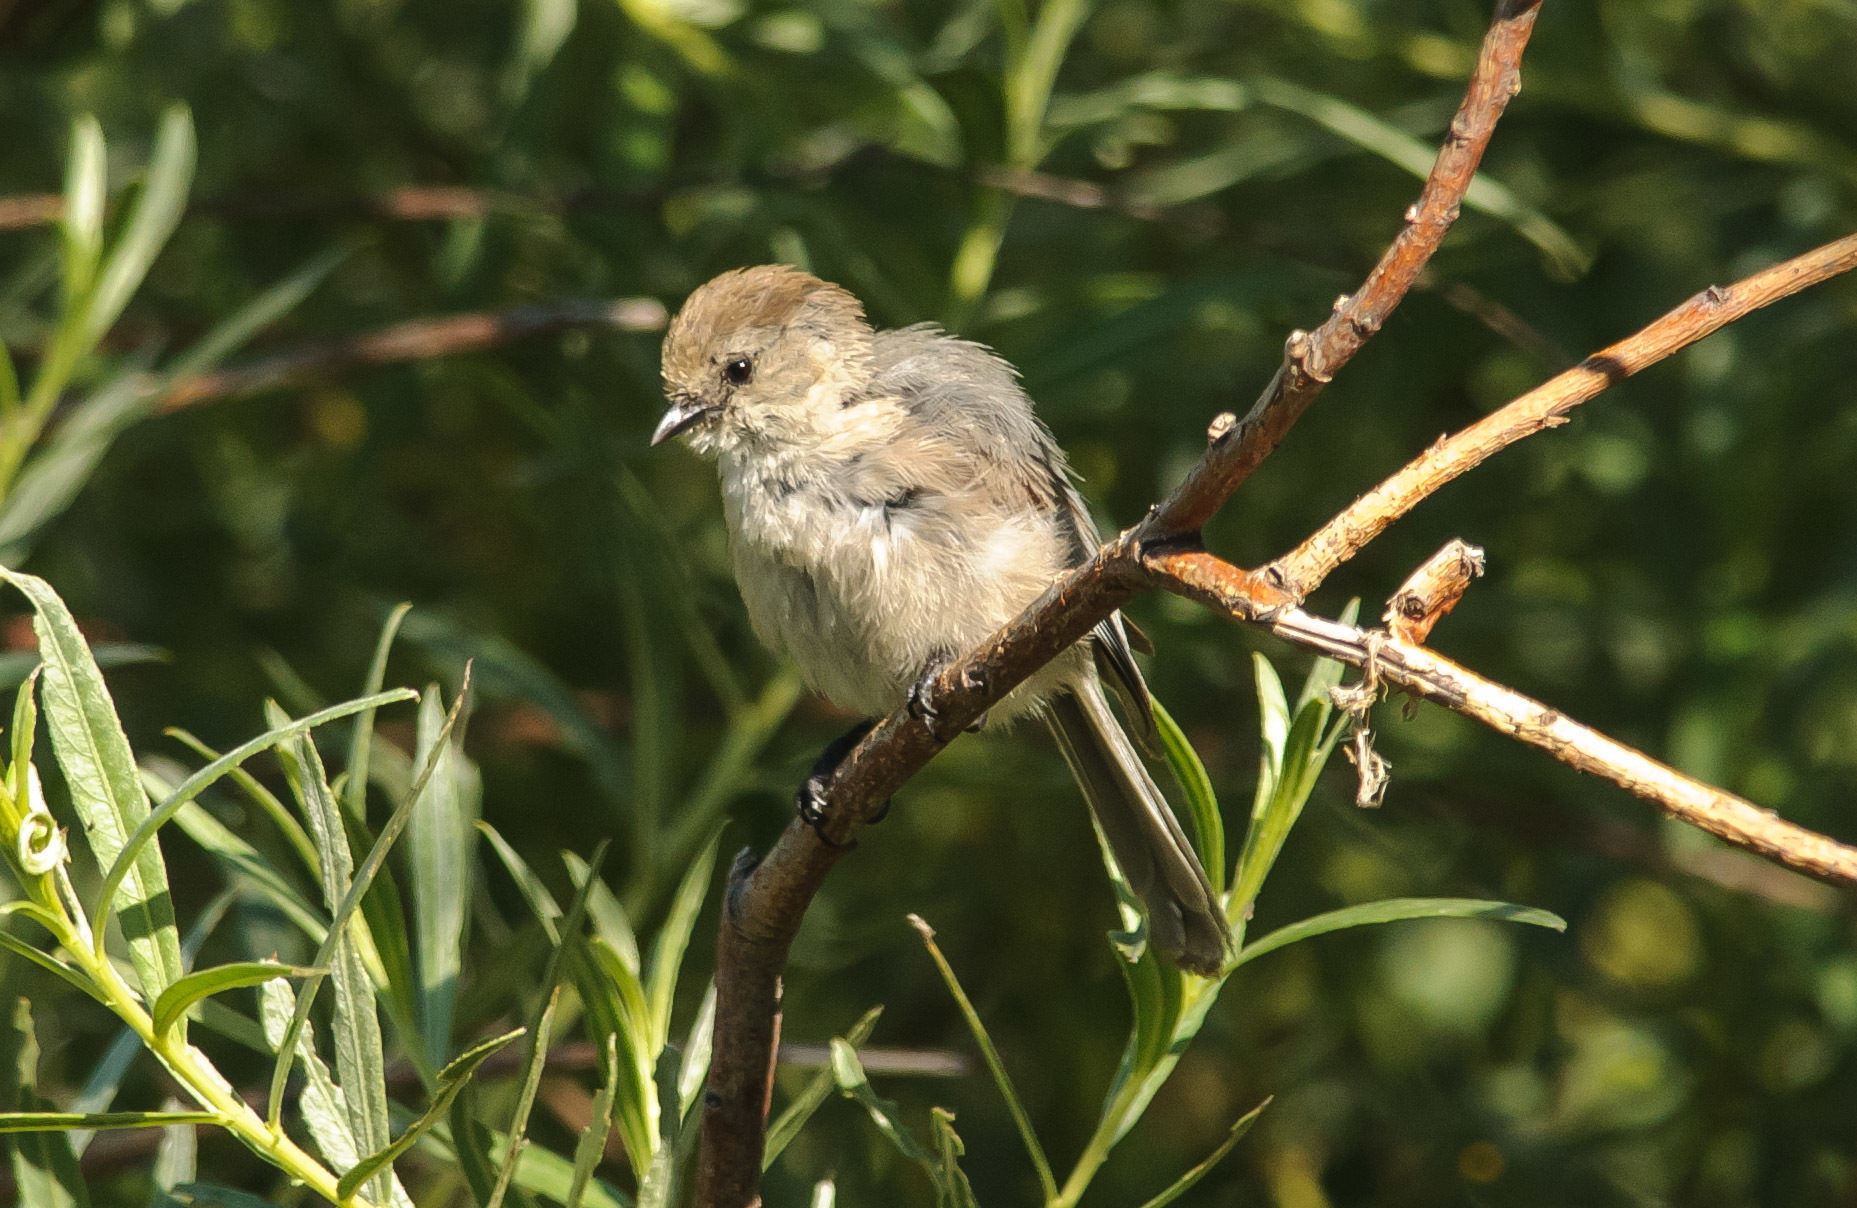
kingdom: Animalia
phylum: Chordata
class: Aves
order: Passeriformes
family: Aegithalidae
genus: Psaltriparus
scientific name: Psaltriparus minimus
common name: American bushtit
